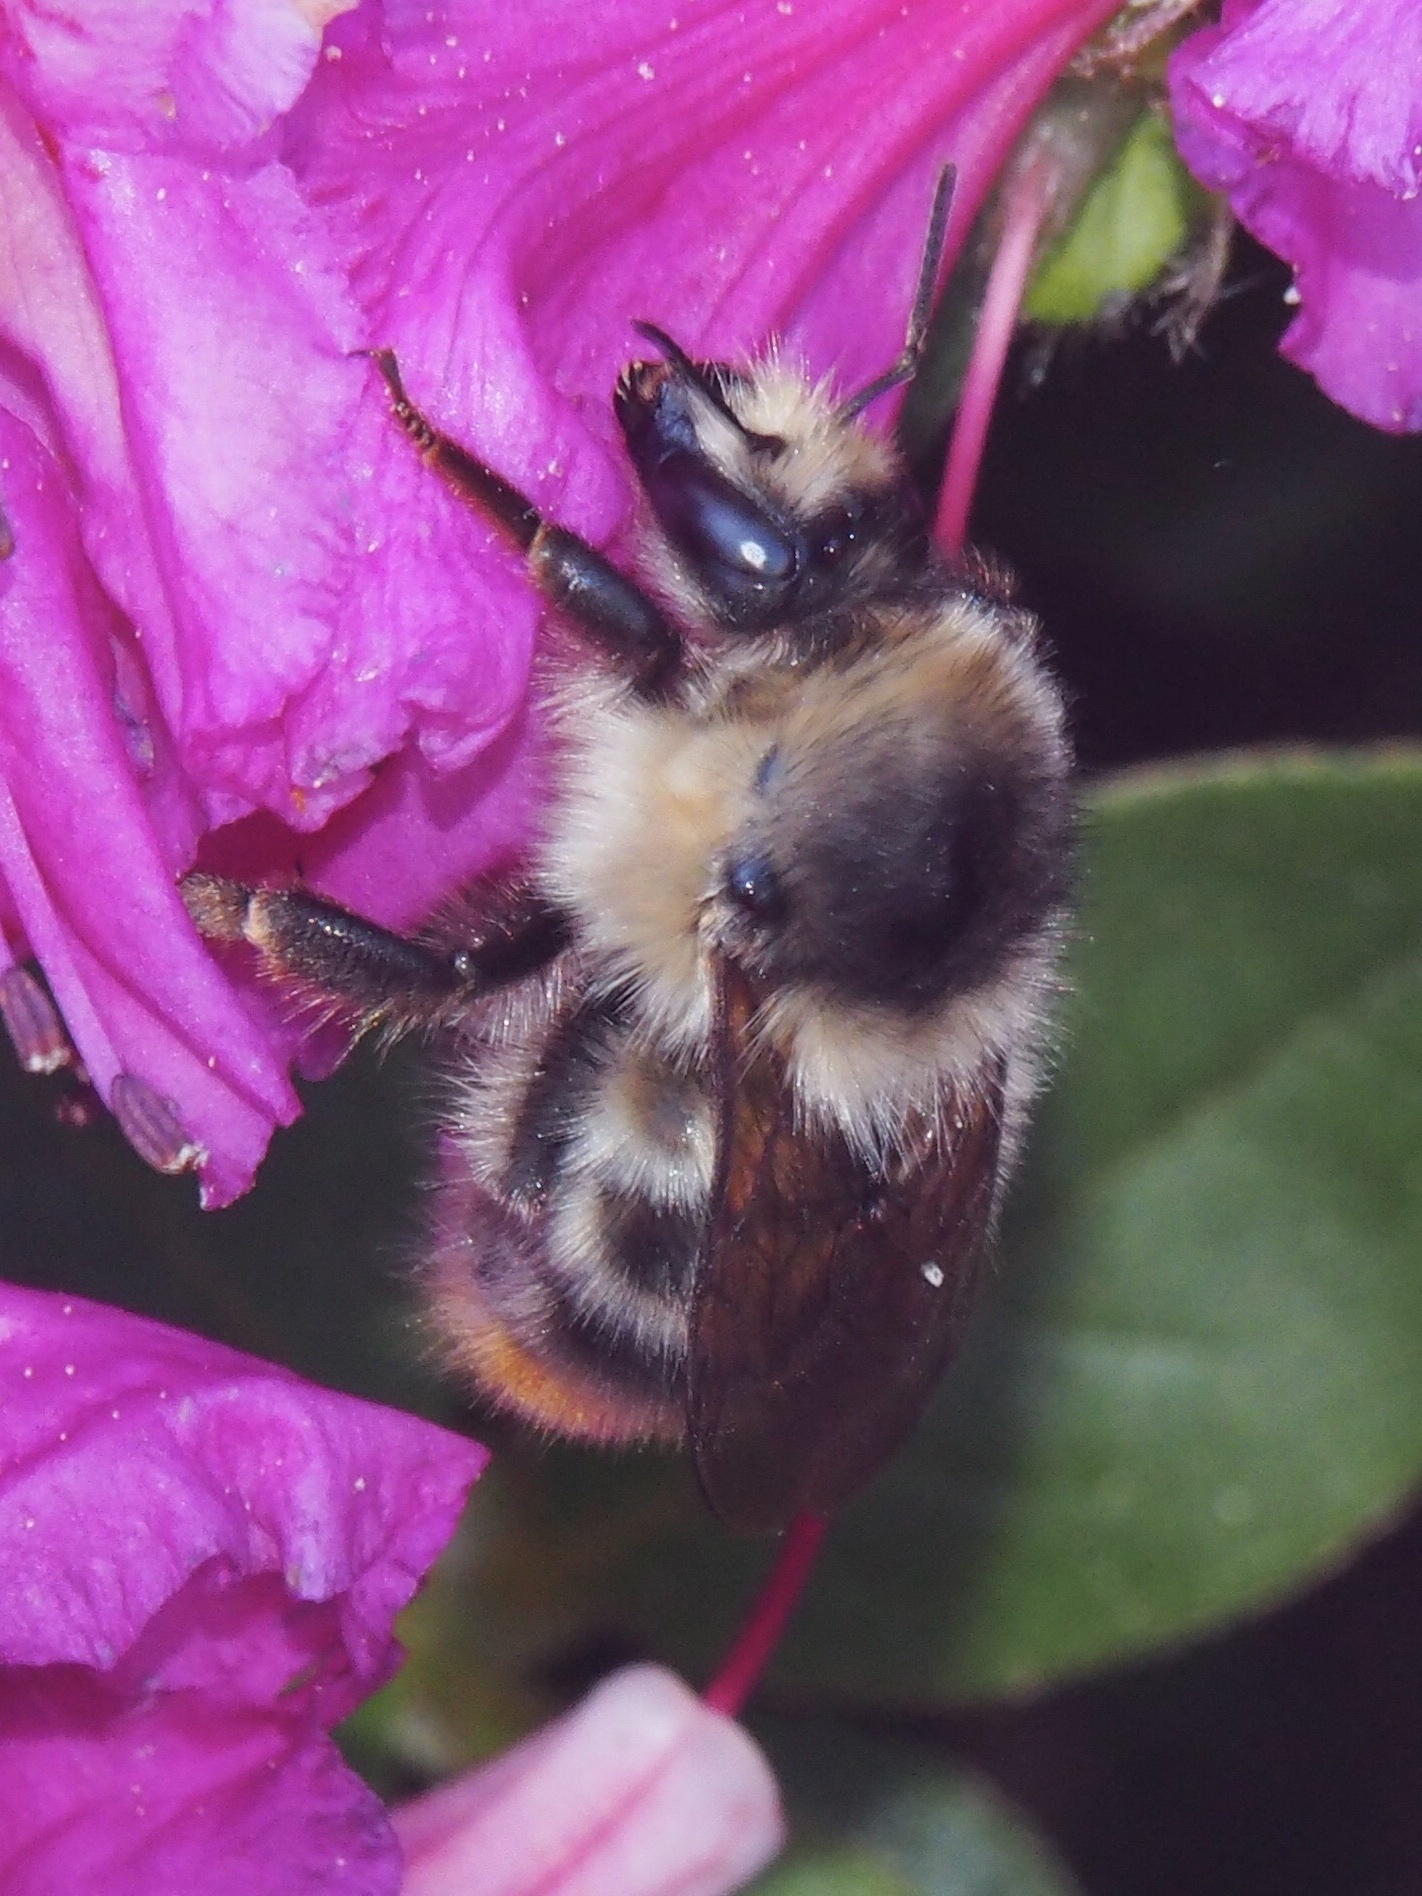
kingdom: Animalia
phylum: Arthropoda
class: Insecta
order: Hymenoptera
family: Apidae
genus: Bombus
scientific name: Bombus sylvarum
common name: Shrill carder bee
